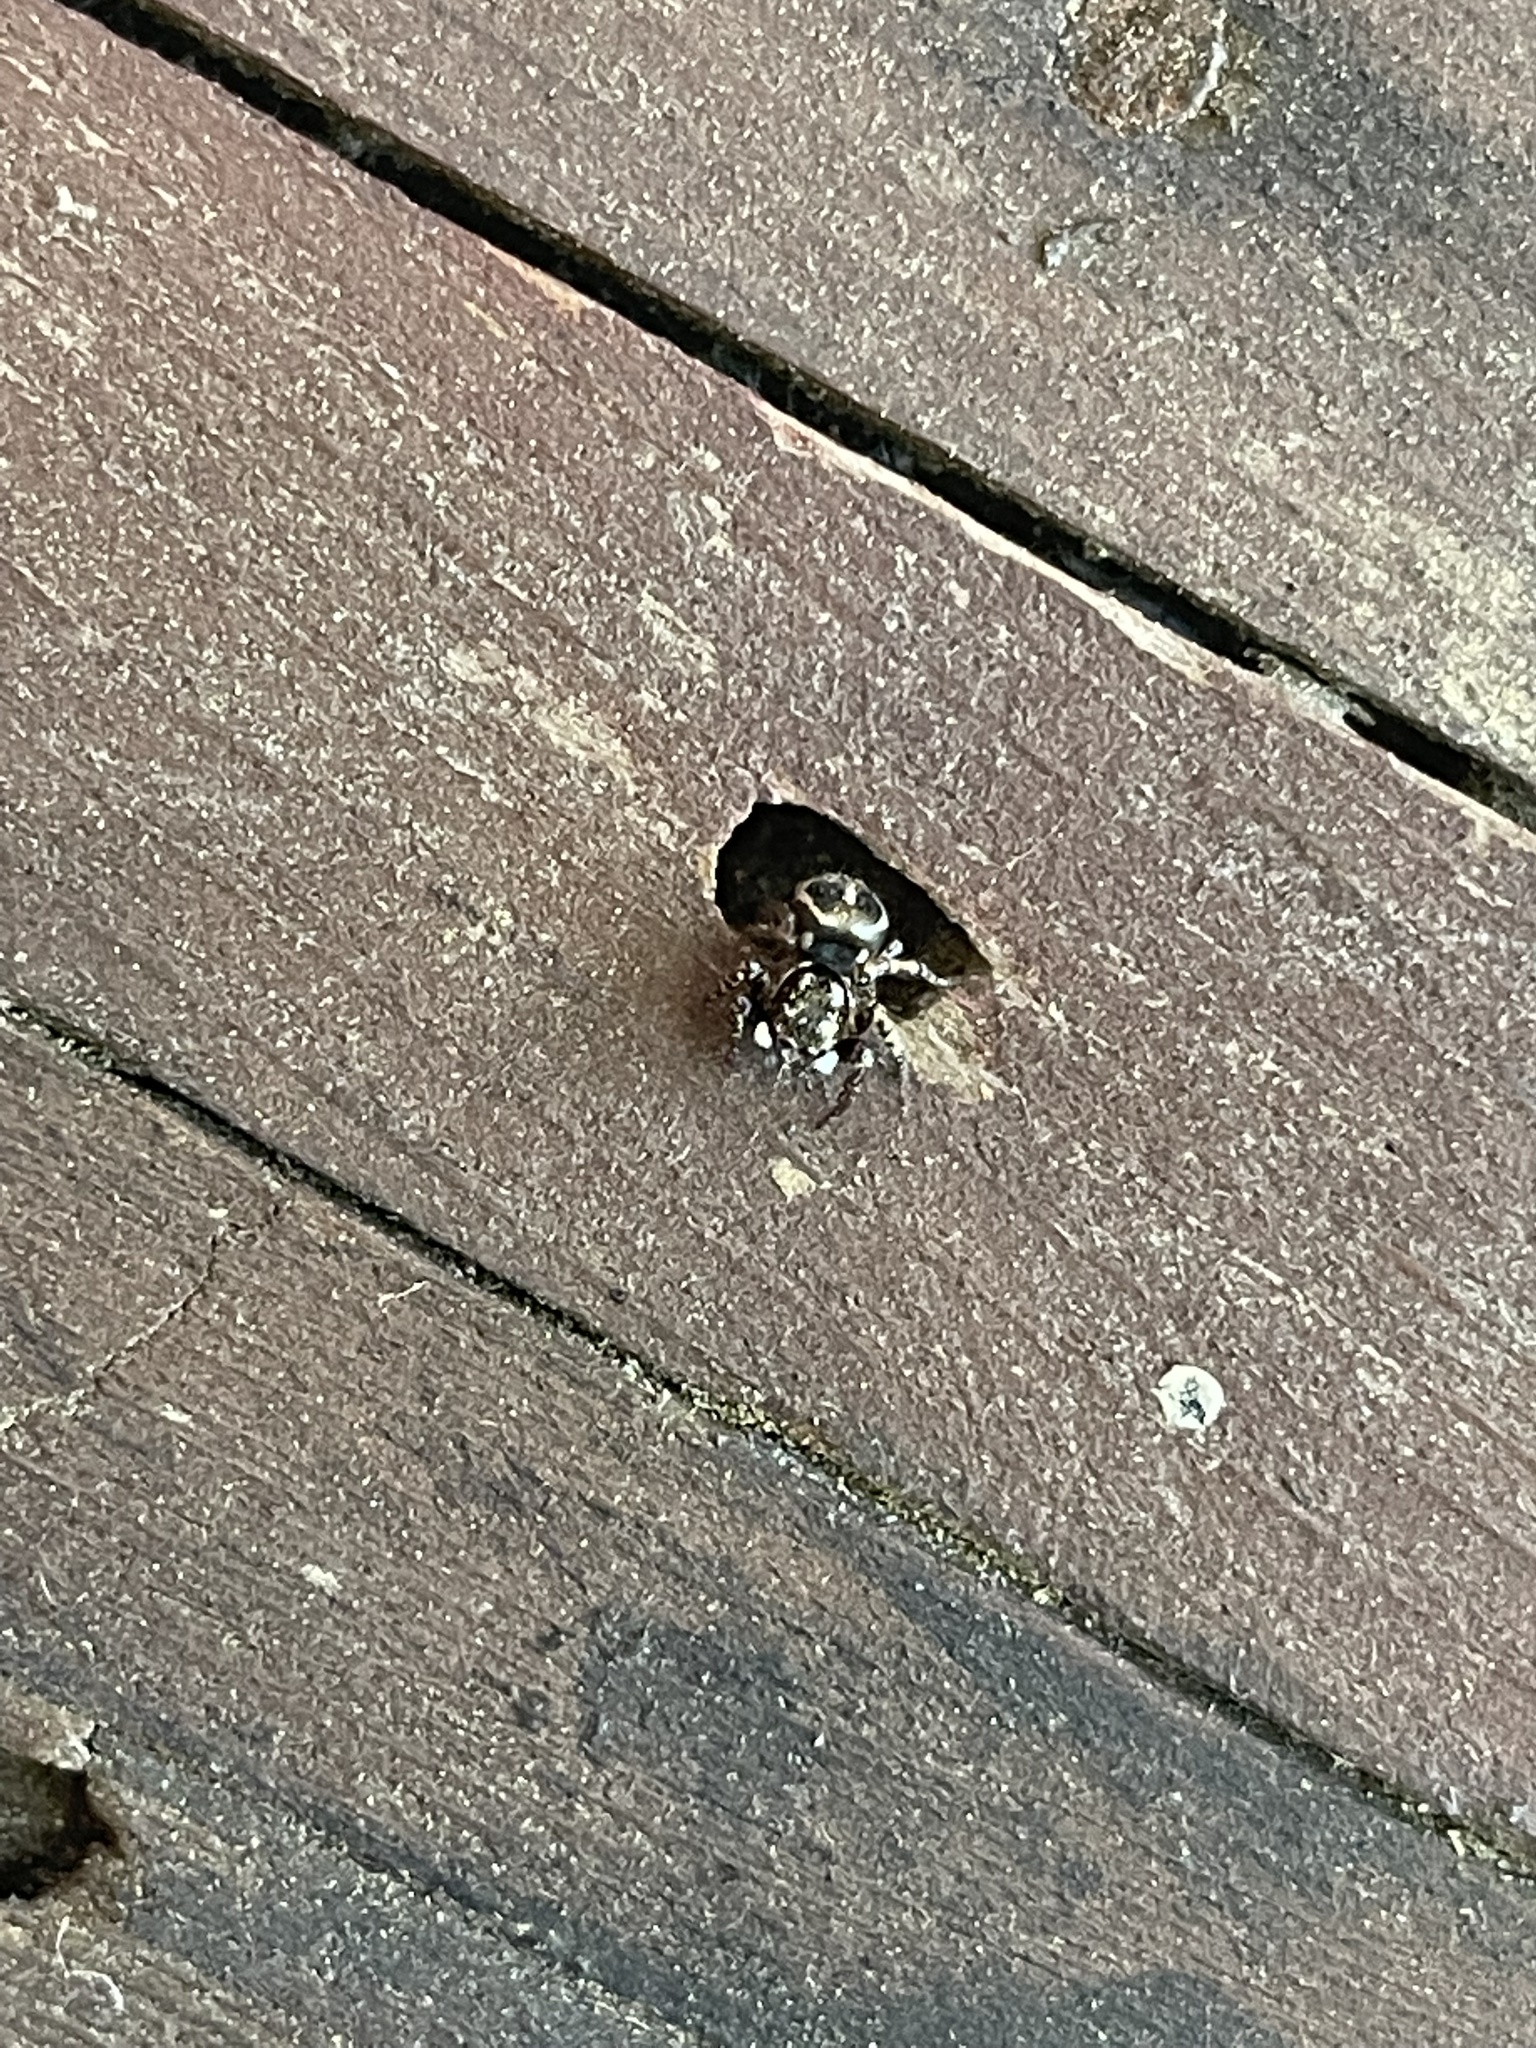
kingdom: Animalia
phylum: Arthropoda
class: Arachnida
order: Araneae
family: Salticidae
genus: Anasaitis
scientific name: Anasaitis canosa
